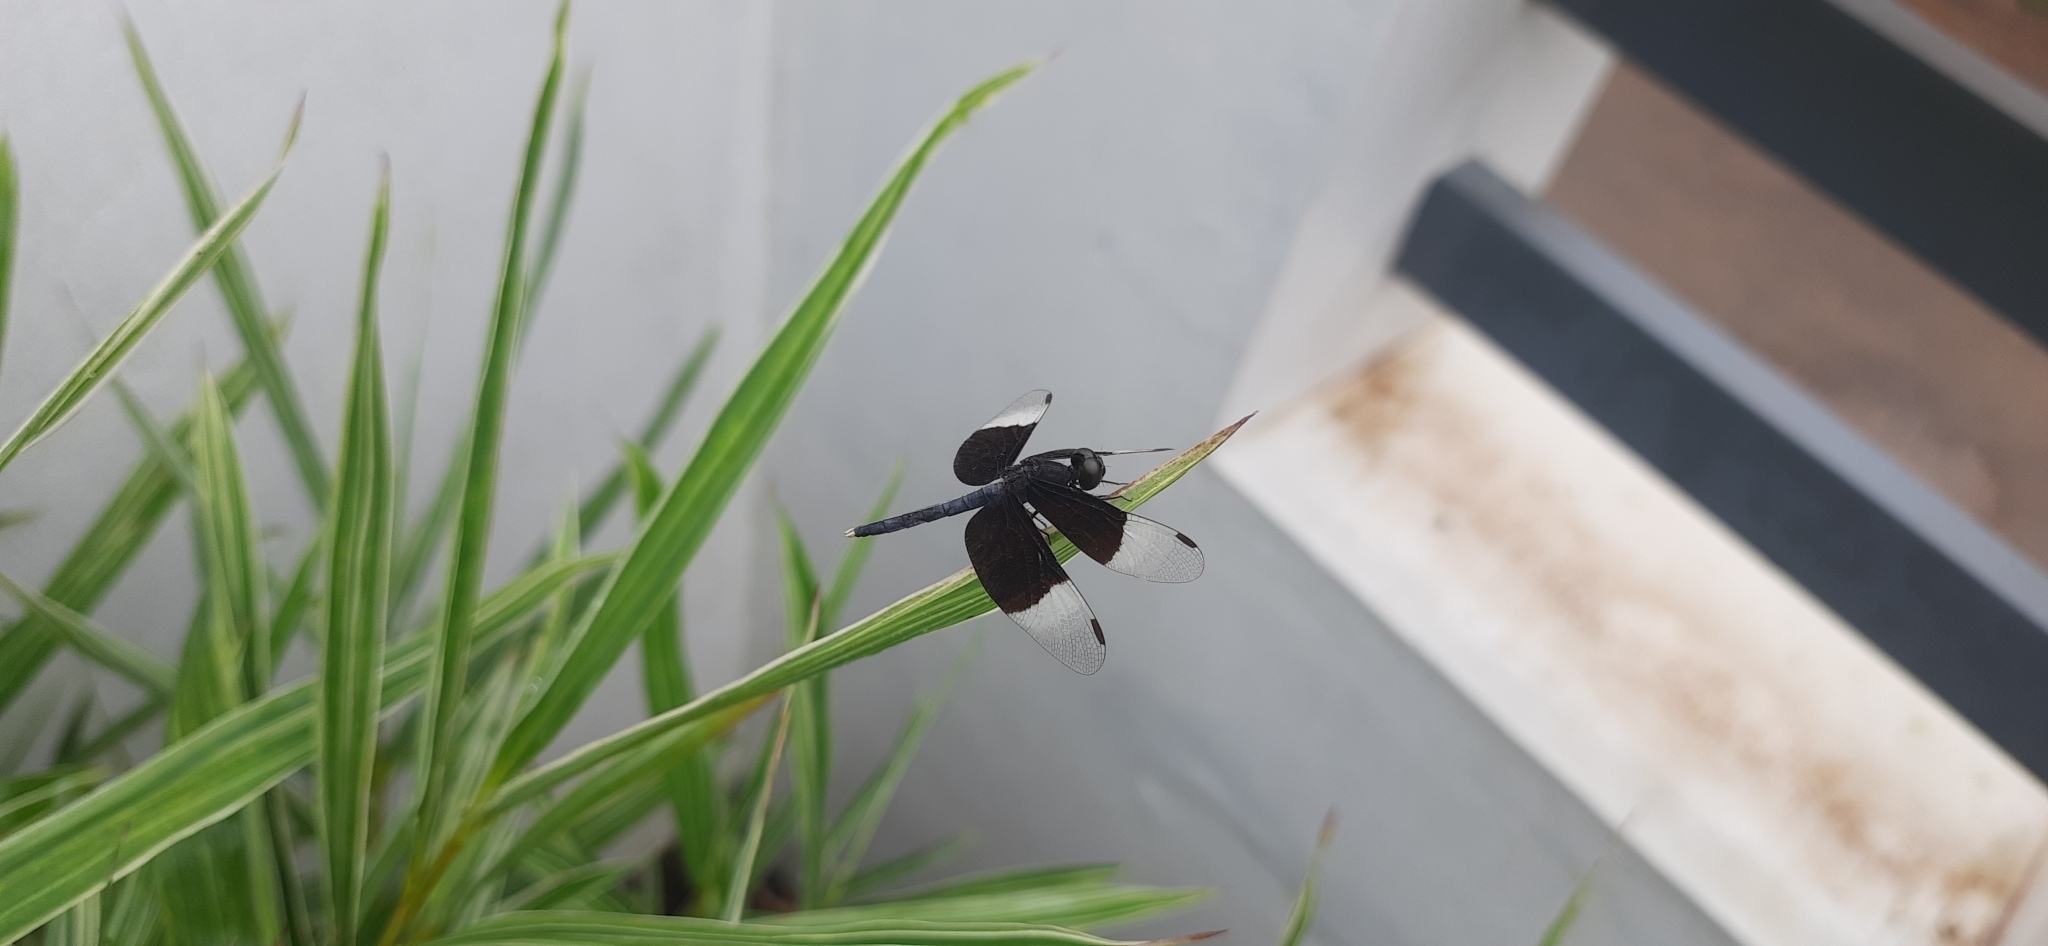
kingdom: Animalia
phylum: Arthropoda
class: Insecta
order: Odonata
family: Libellulidae
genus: Neurothemis
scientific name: Neurothemis tullia
